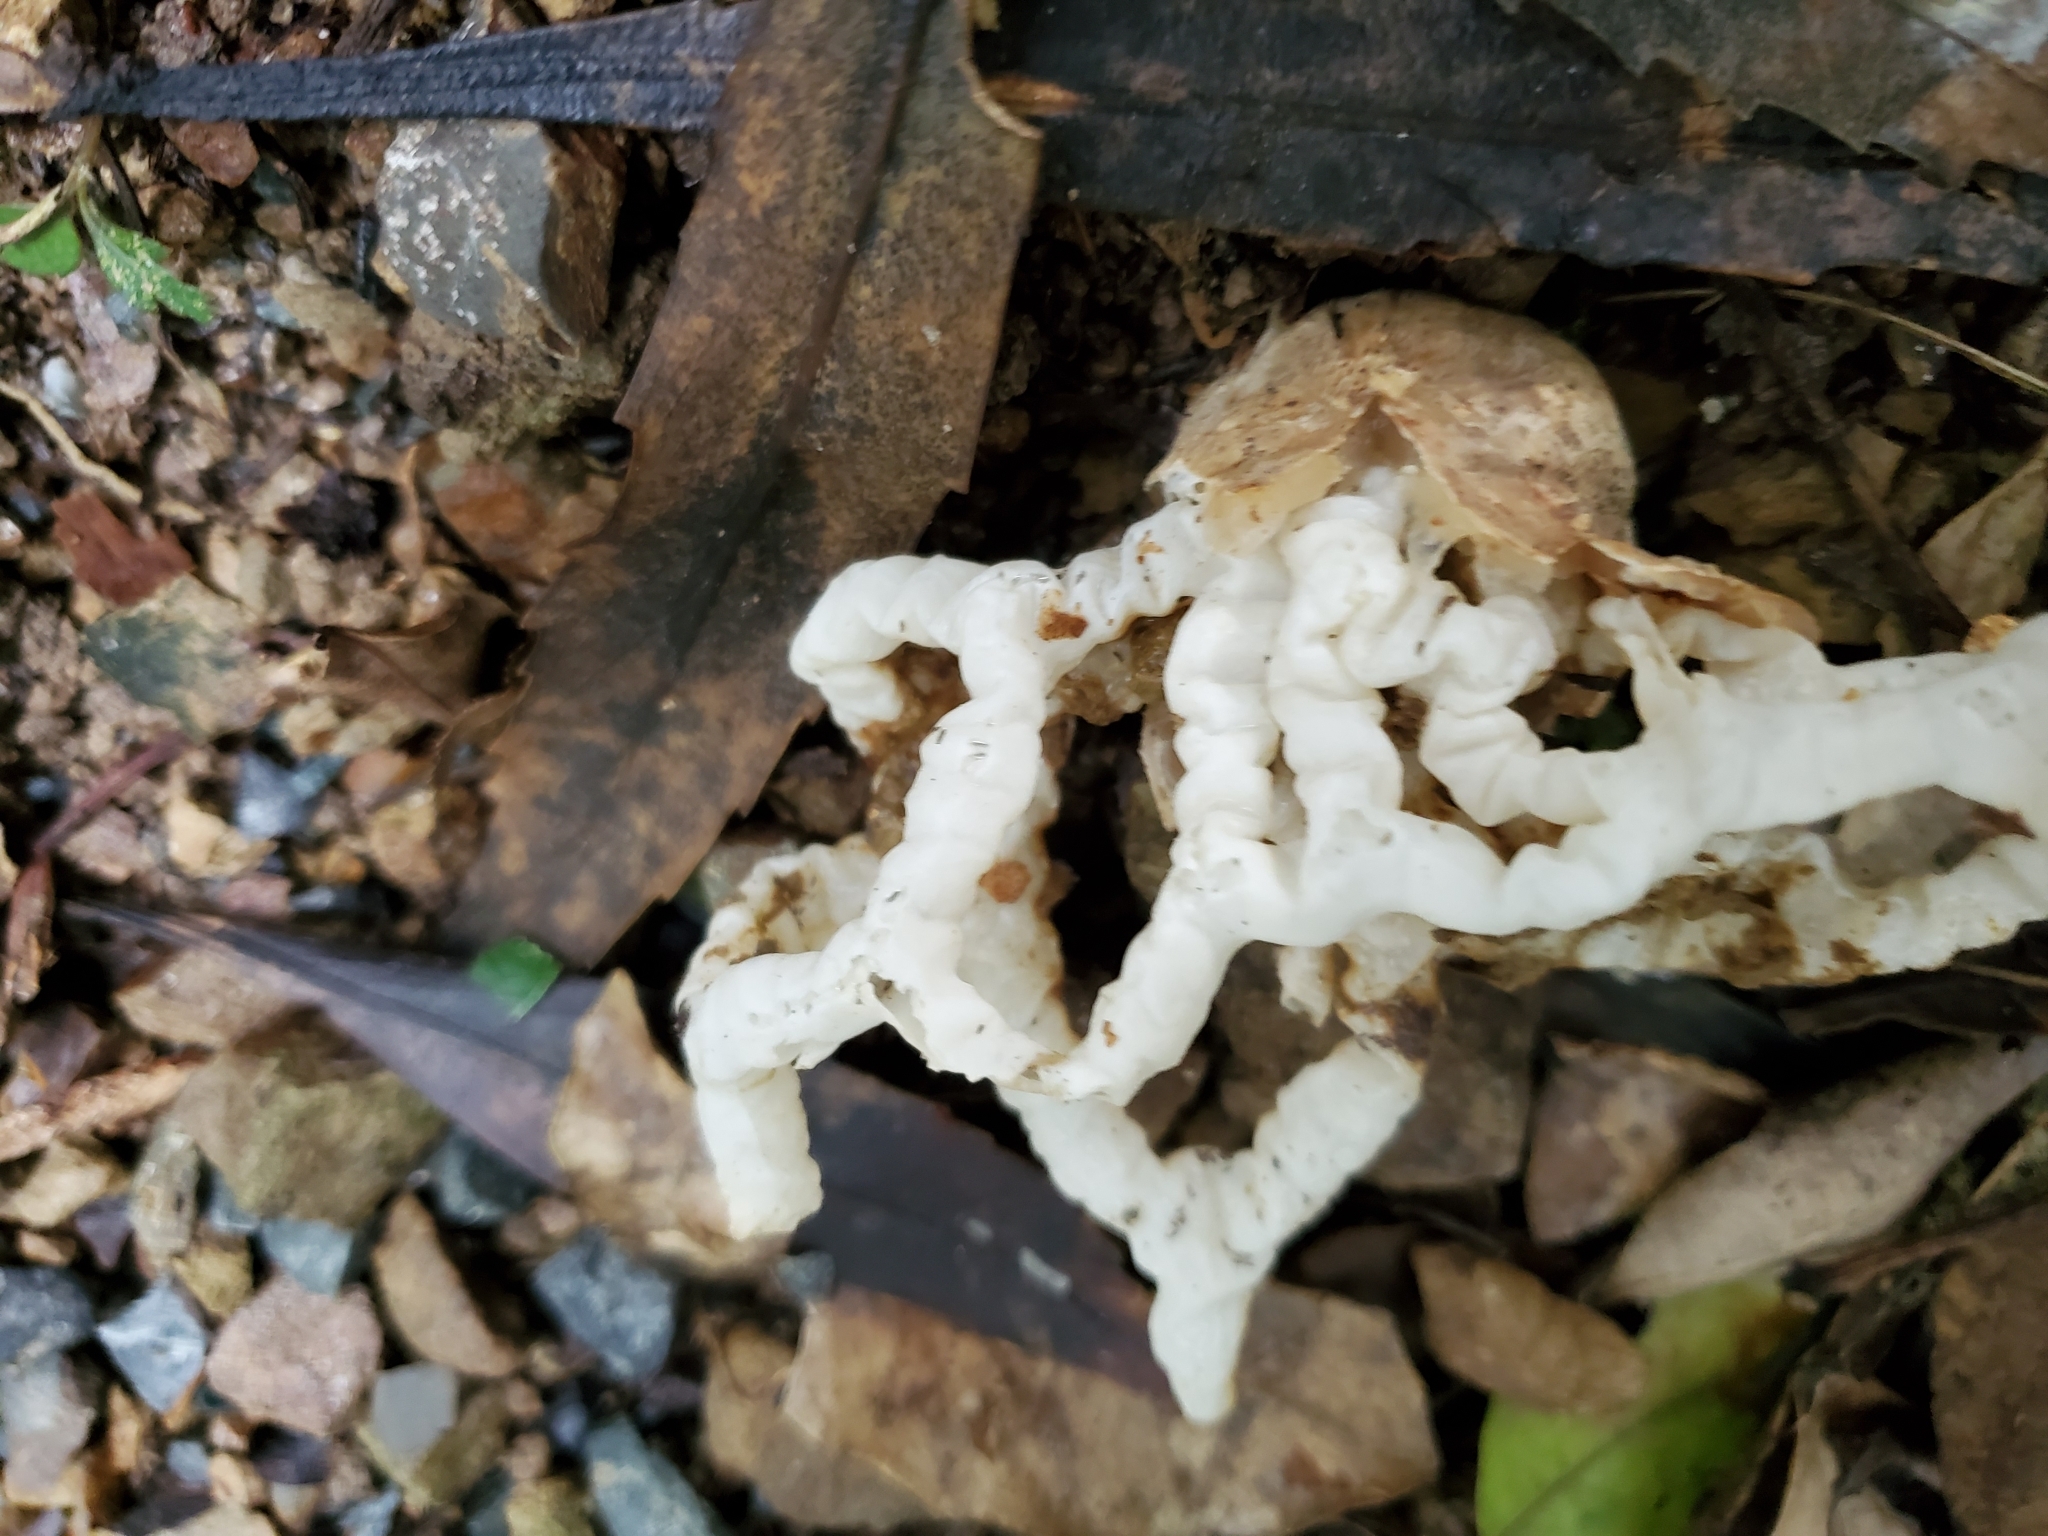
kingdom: Fungi
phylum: Basidiomycota
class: Agaricomycetes
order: Phallales
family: Phallaceae
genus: Ileodictyon
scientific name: Ileodictyon cibarium
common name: Basket fungus
